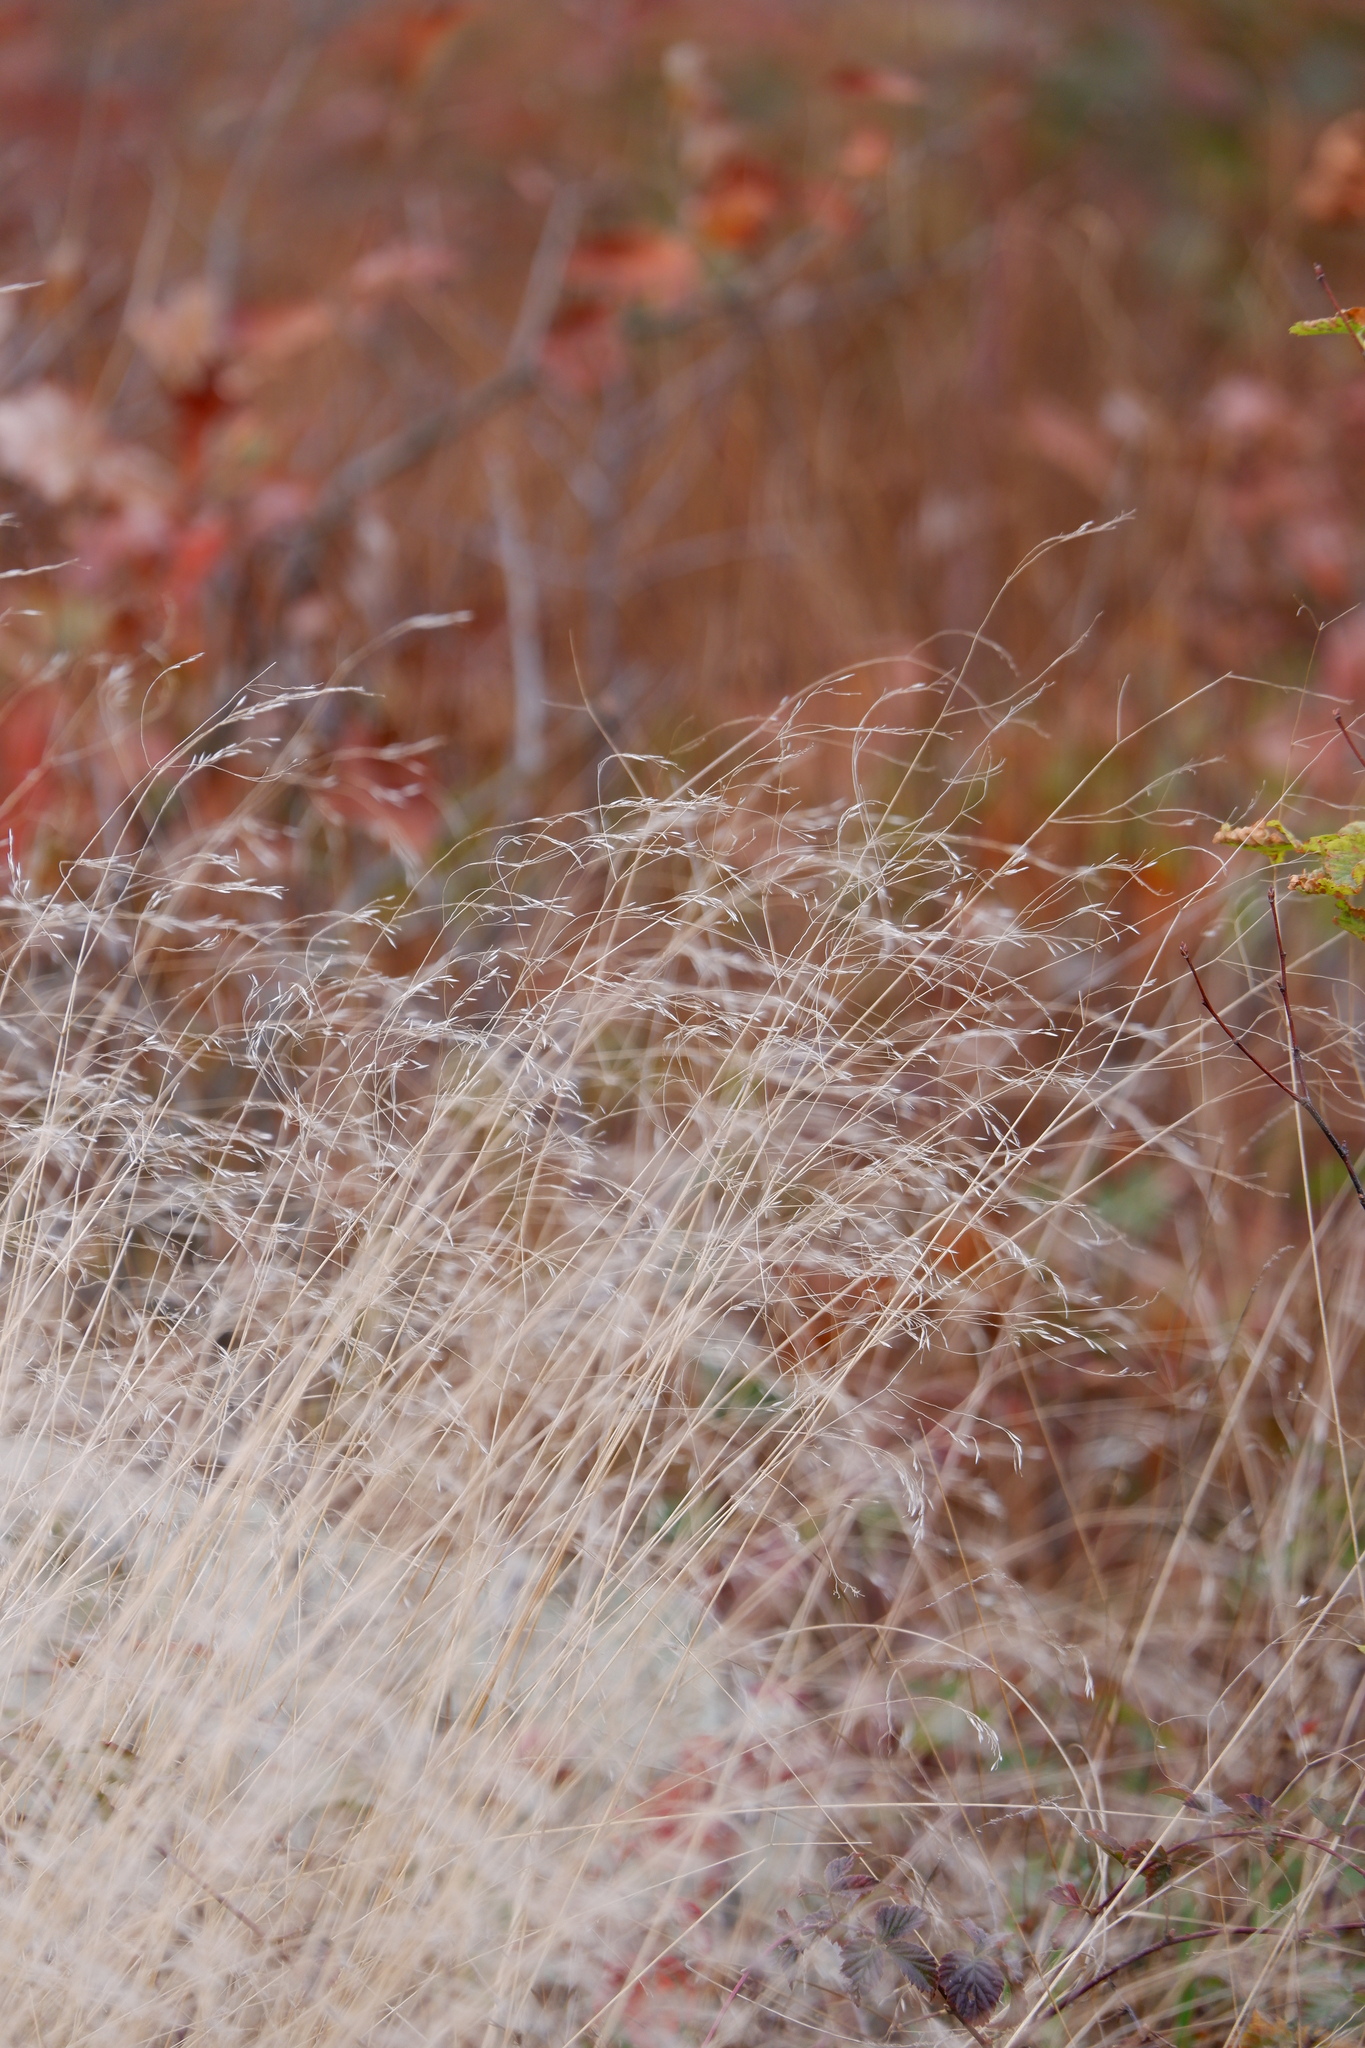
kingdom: Plantae
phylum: Tracheophyta
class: Liliopsida
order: Poales
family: Poaceae
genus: Avenella
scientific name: Avenella flexuosa
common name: Wavy hairgrass
